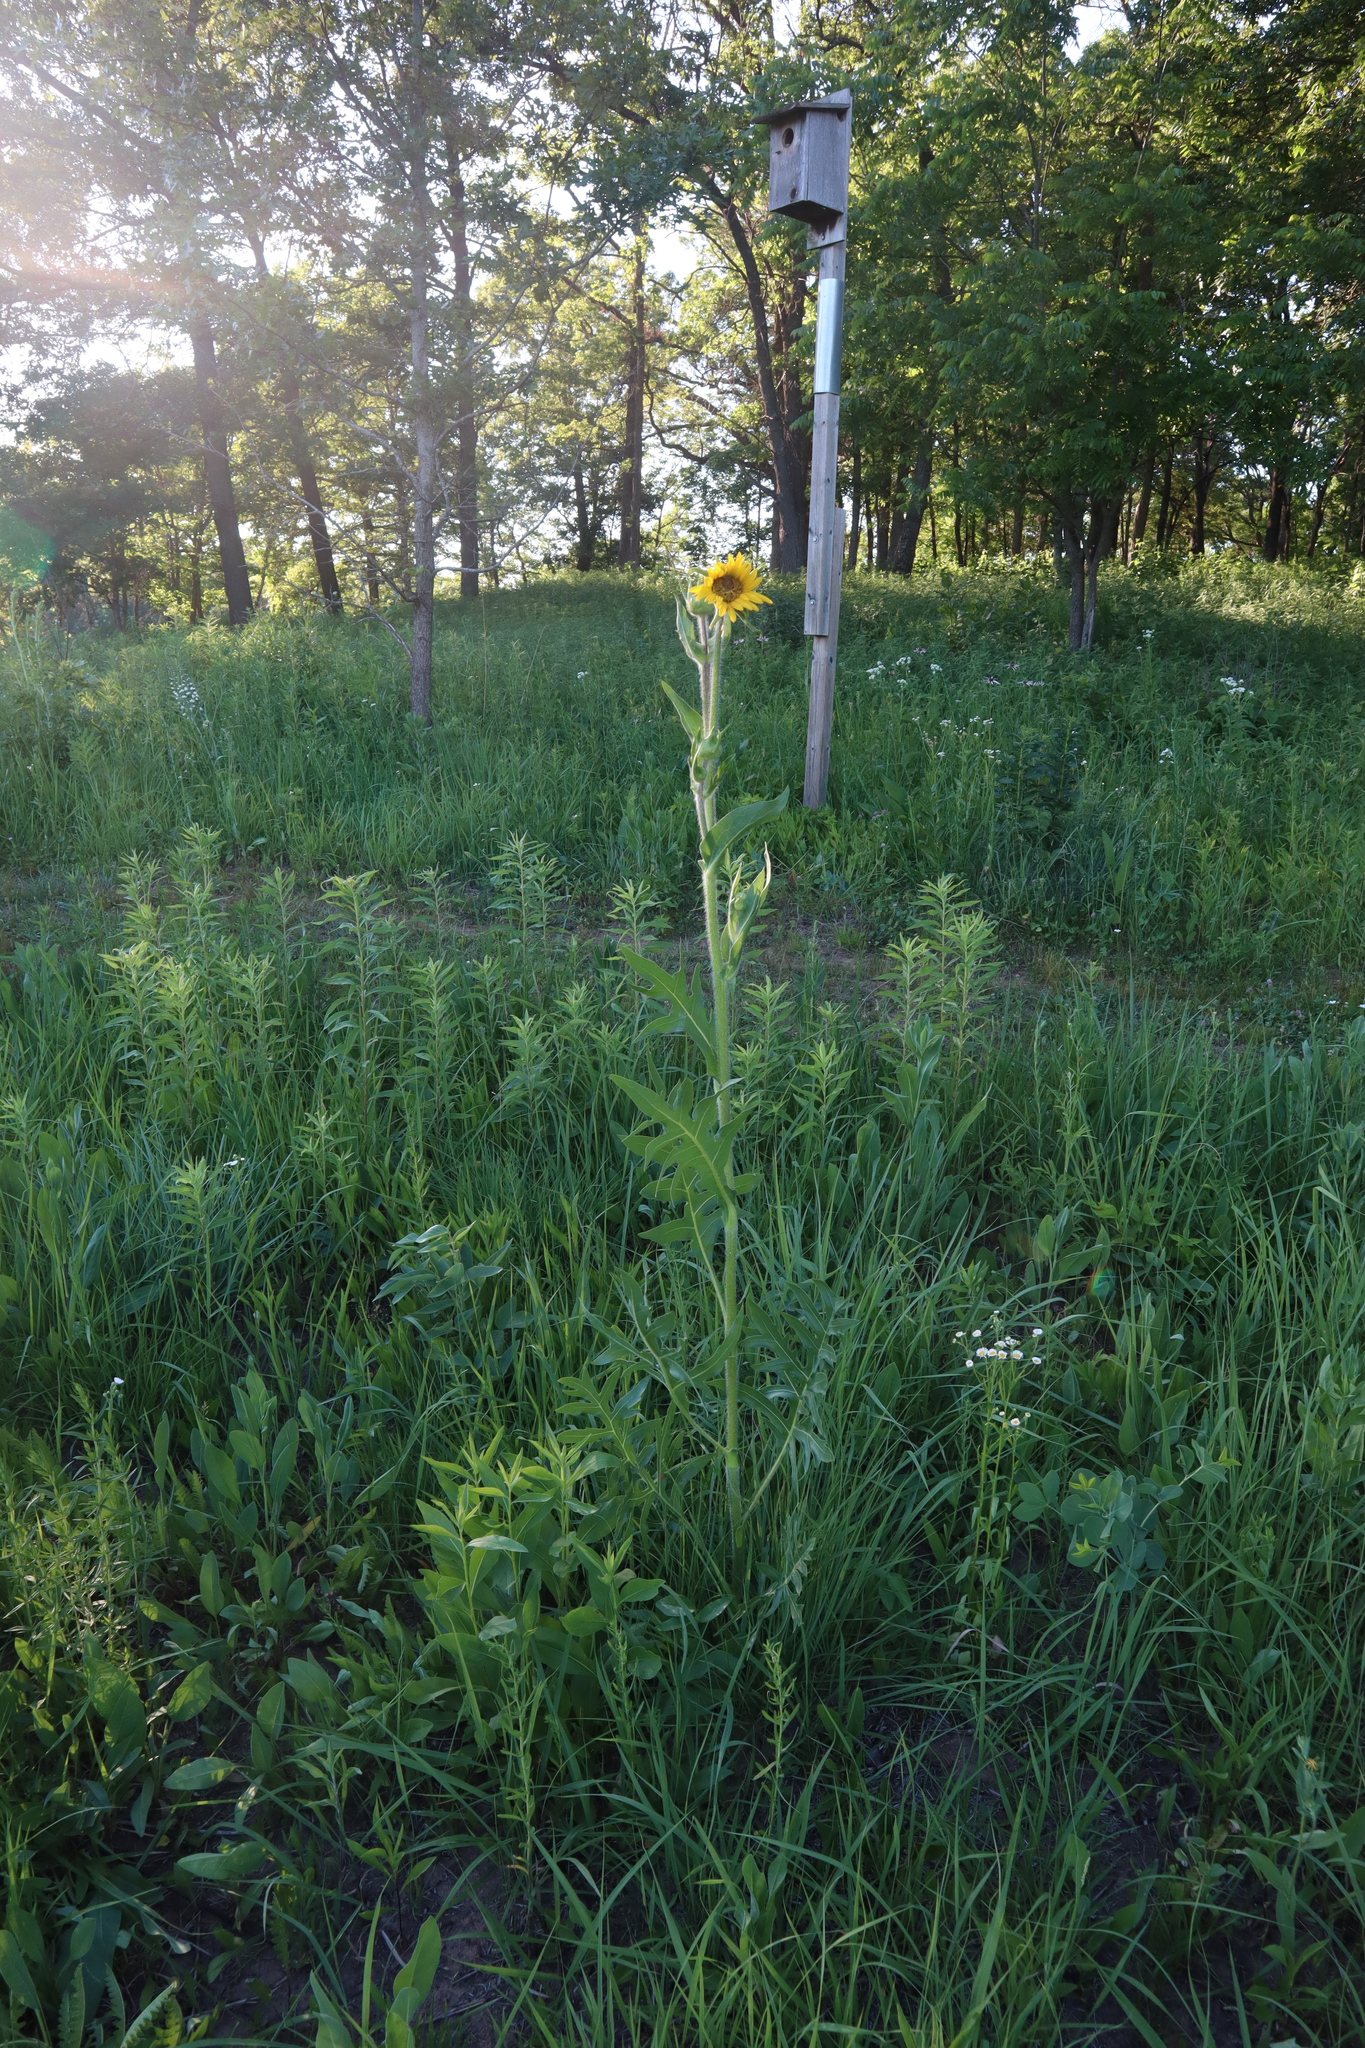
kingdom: Plantae
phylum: Tracheophyta
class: Magnoliopsida
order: Asterales
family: Asteraceae
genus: Silphium
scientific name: Silphium laciniatum
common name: Polarplant
